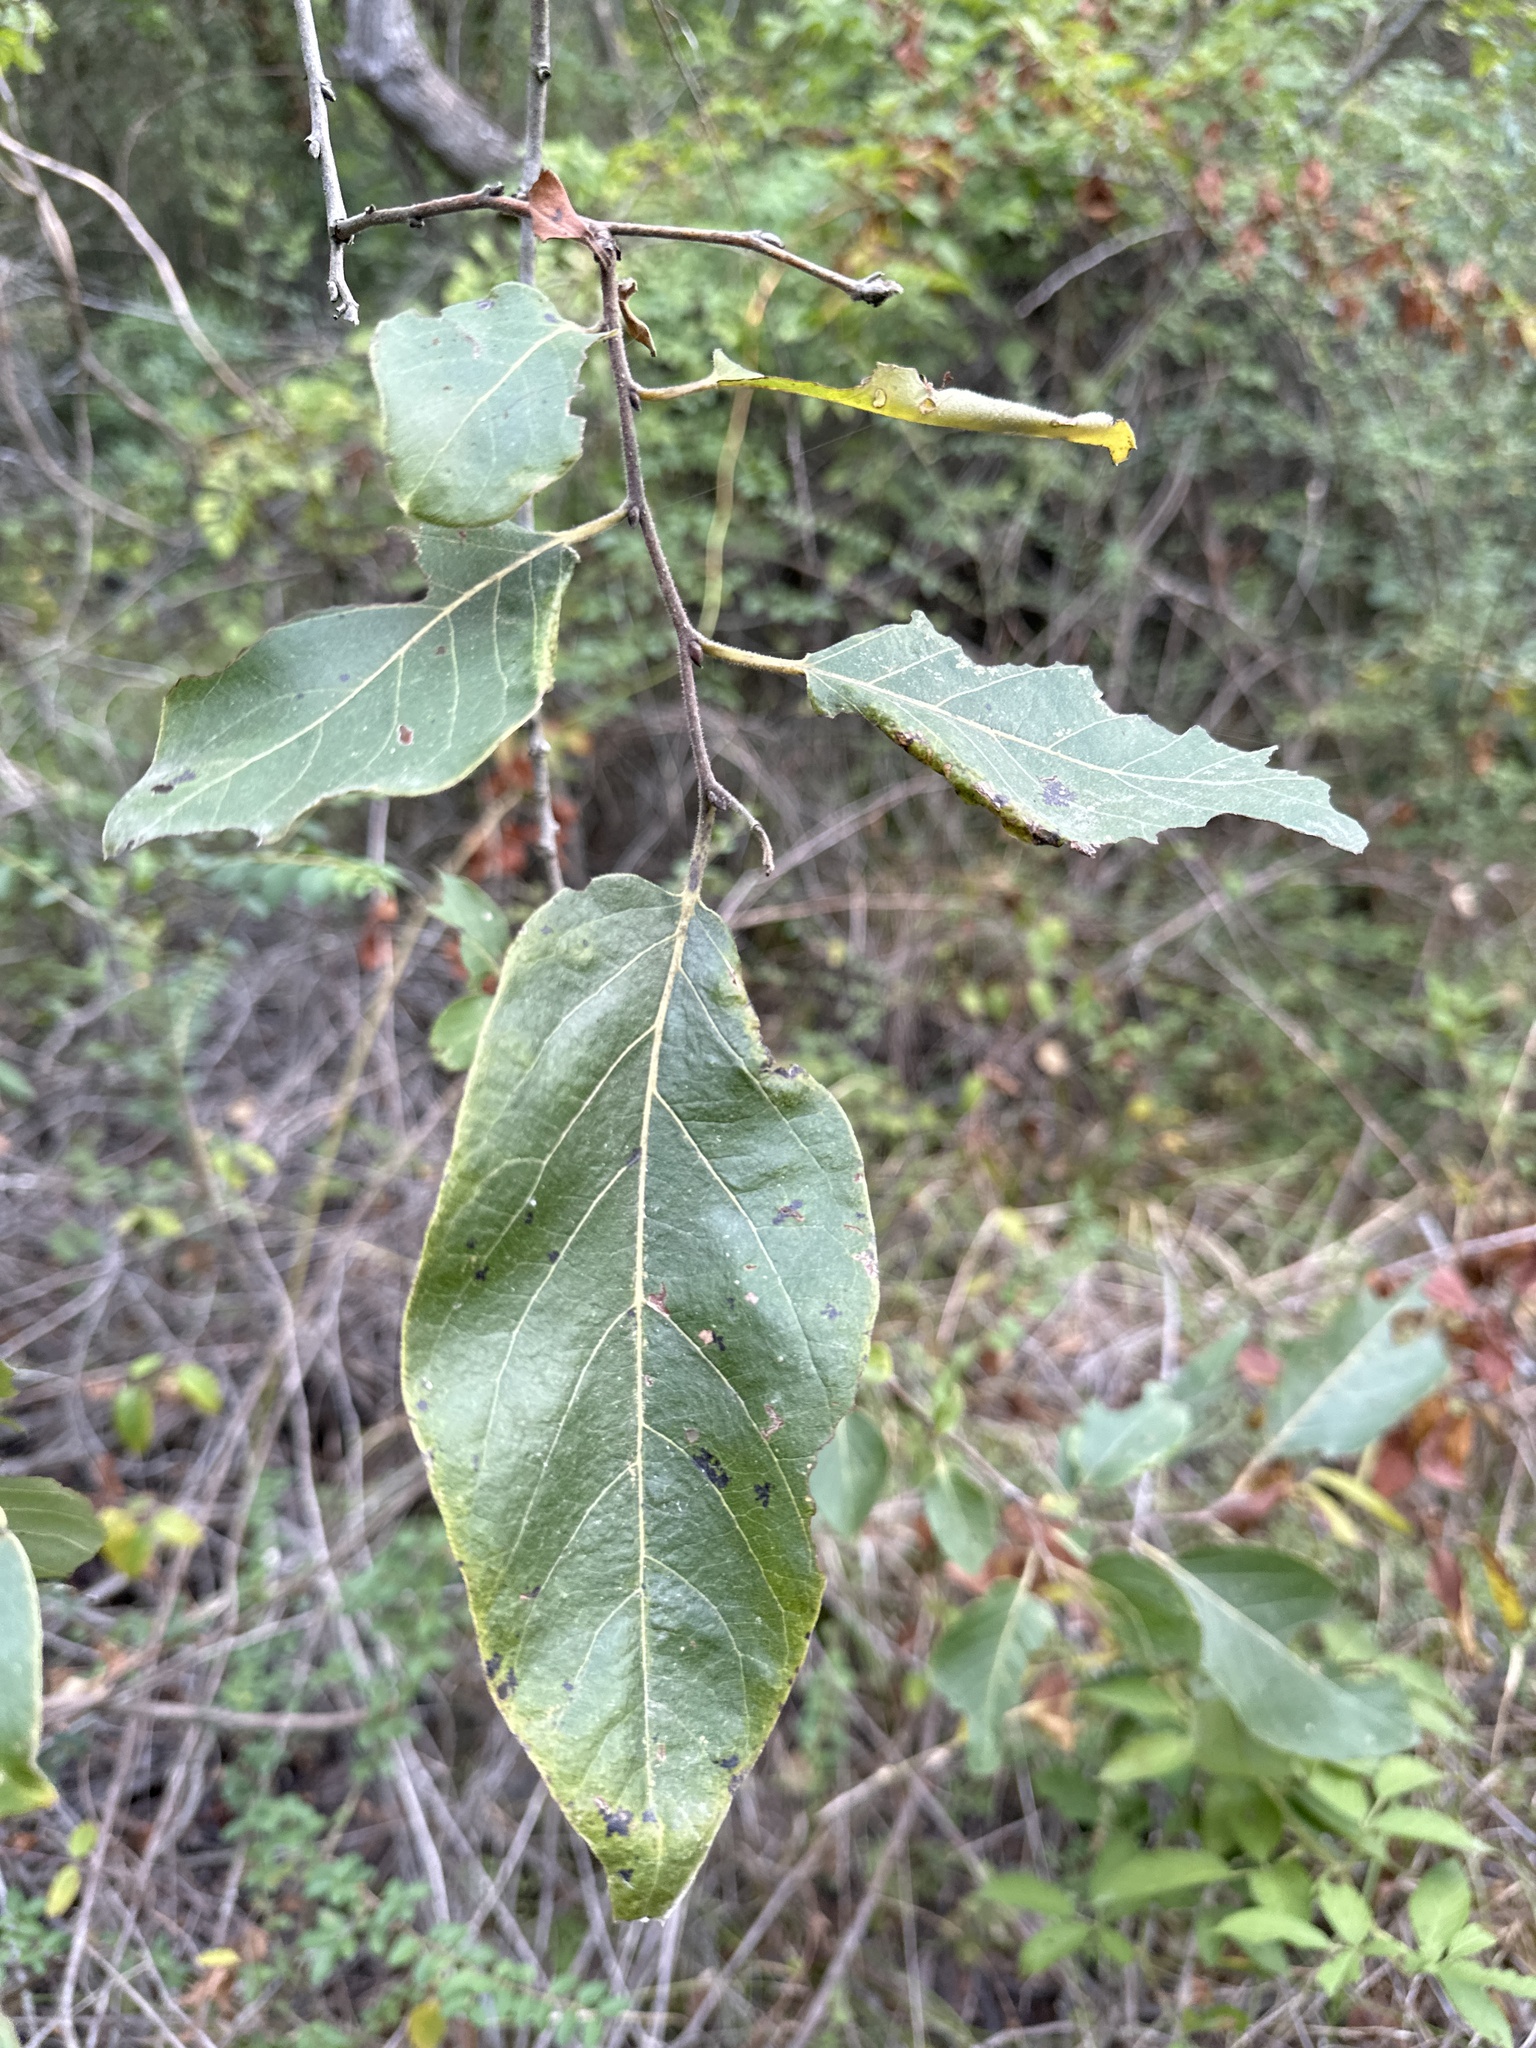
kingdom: Plantae
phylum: Tracheophyta
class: Magnoliopsida
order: Ericales
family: Ebenaceae
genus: Diospyros
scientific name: Diospyros virginiana
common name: Persimmon
